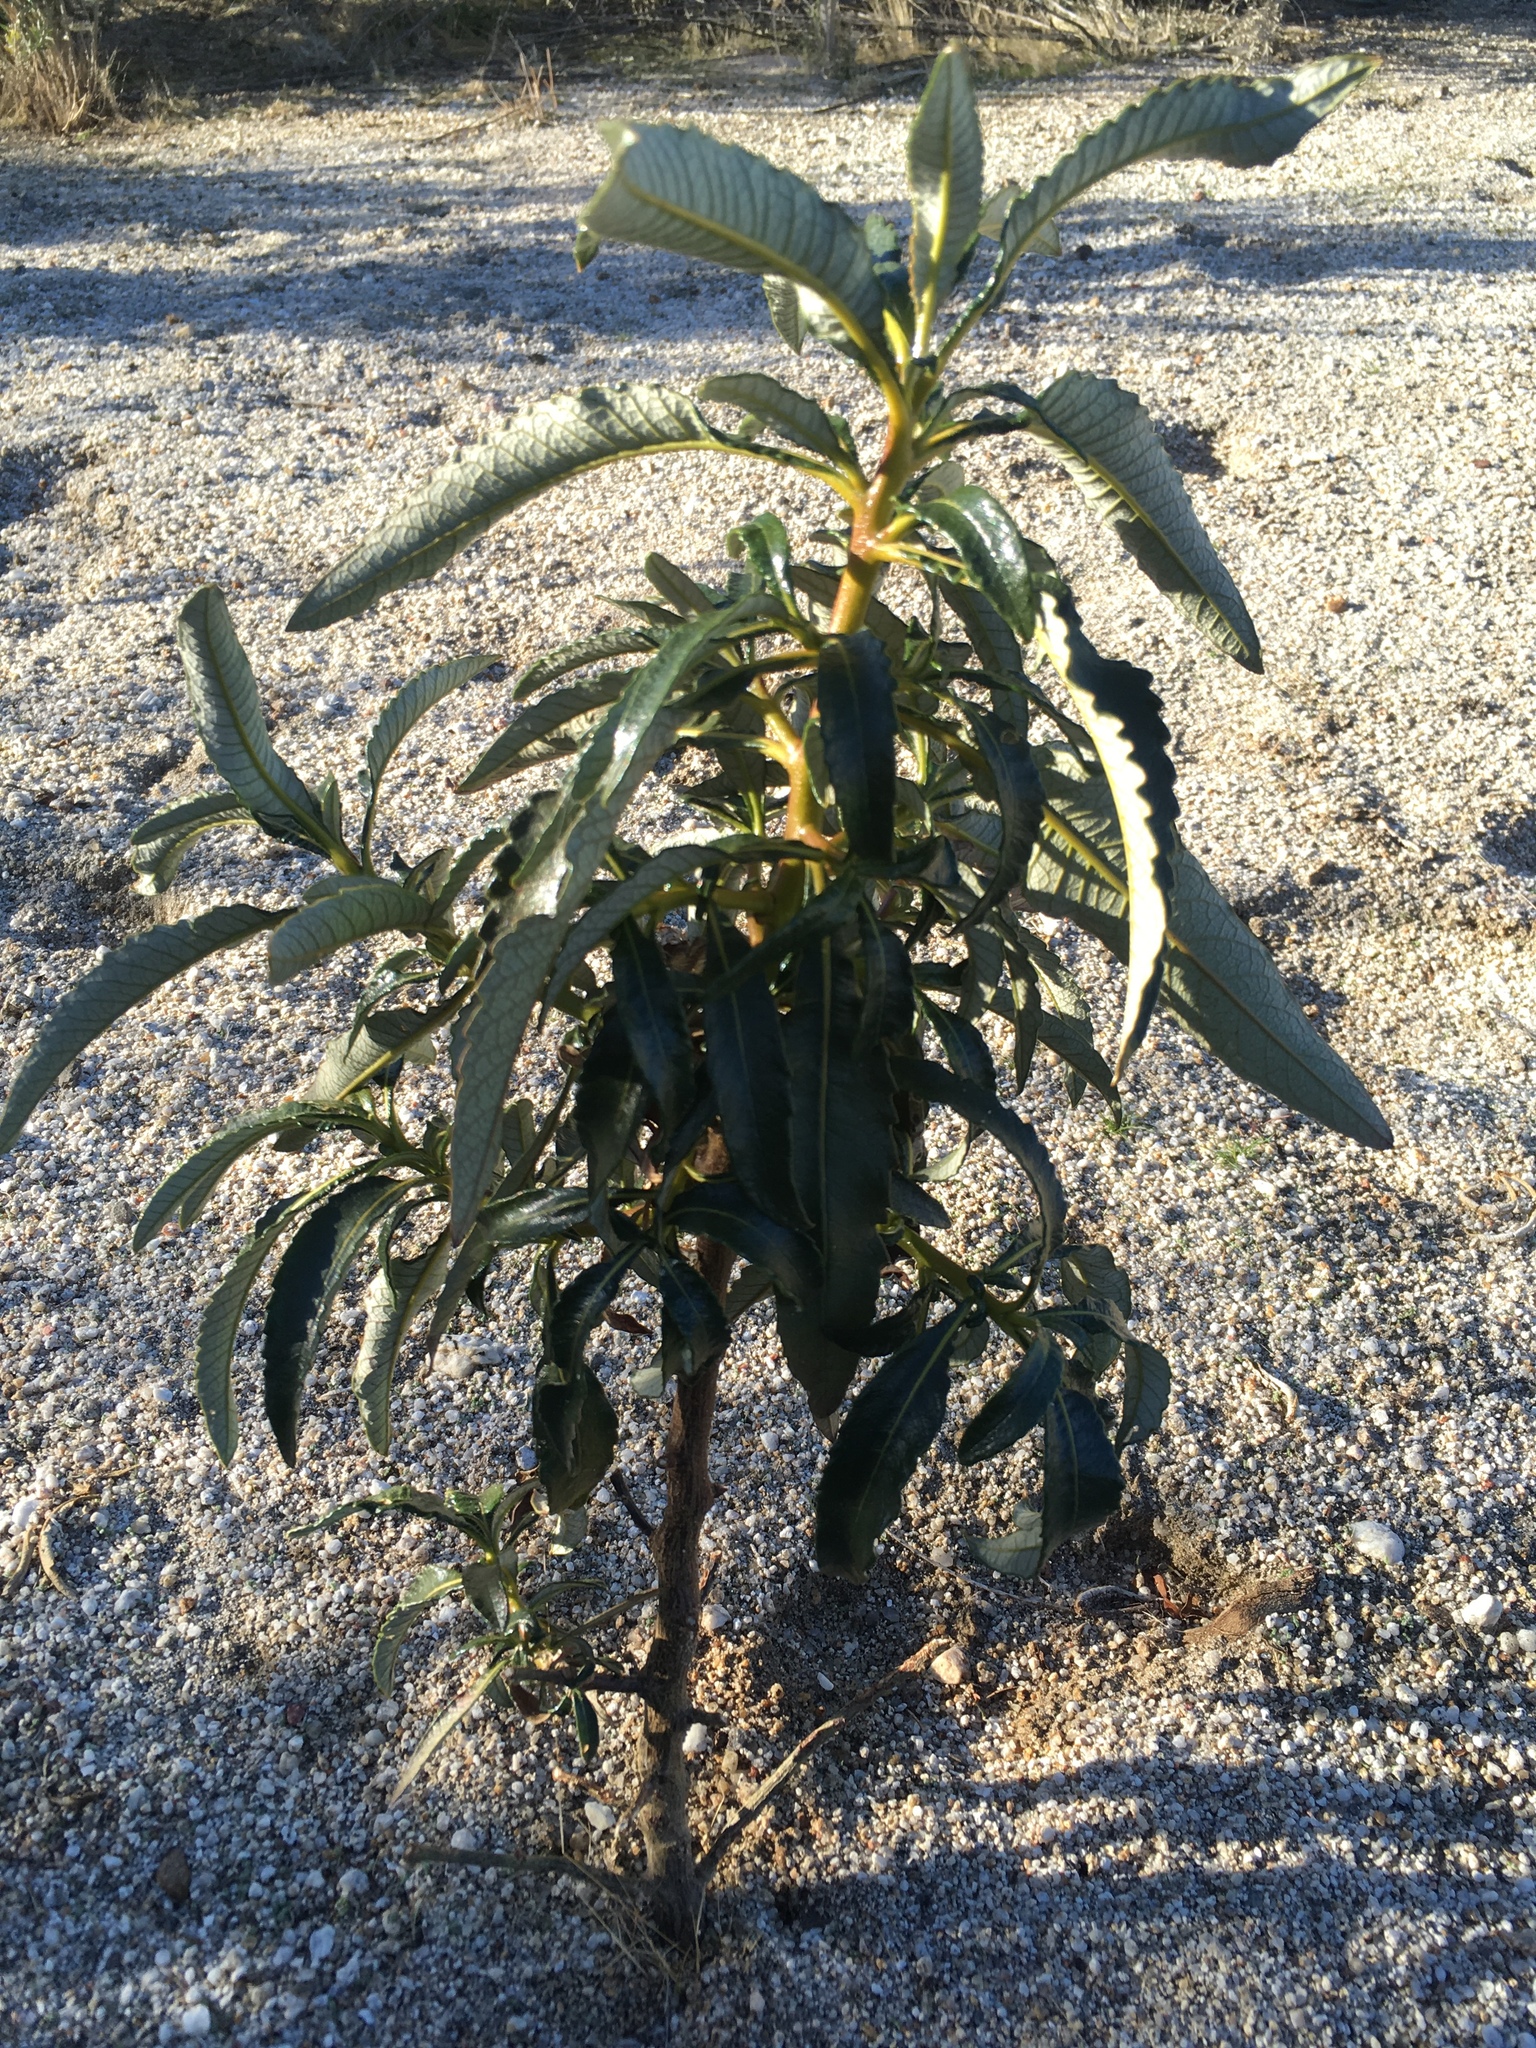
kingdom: Plantae
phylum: Tracheophyta
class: Magnoliopsida
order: Boraginales
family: Namaceae
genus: Eriodictyon
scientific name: Eriodictyon trichocalyx
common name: Hairy yerba-santa
